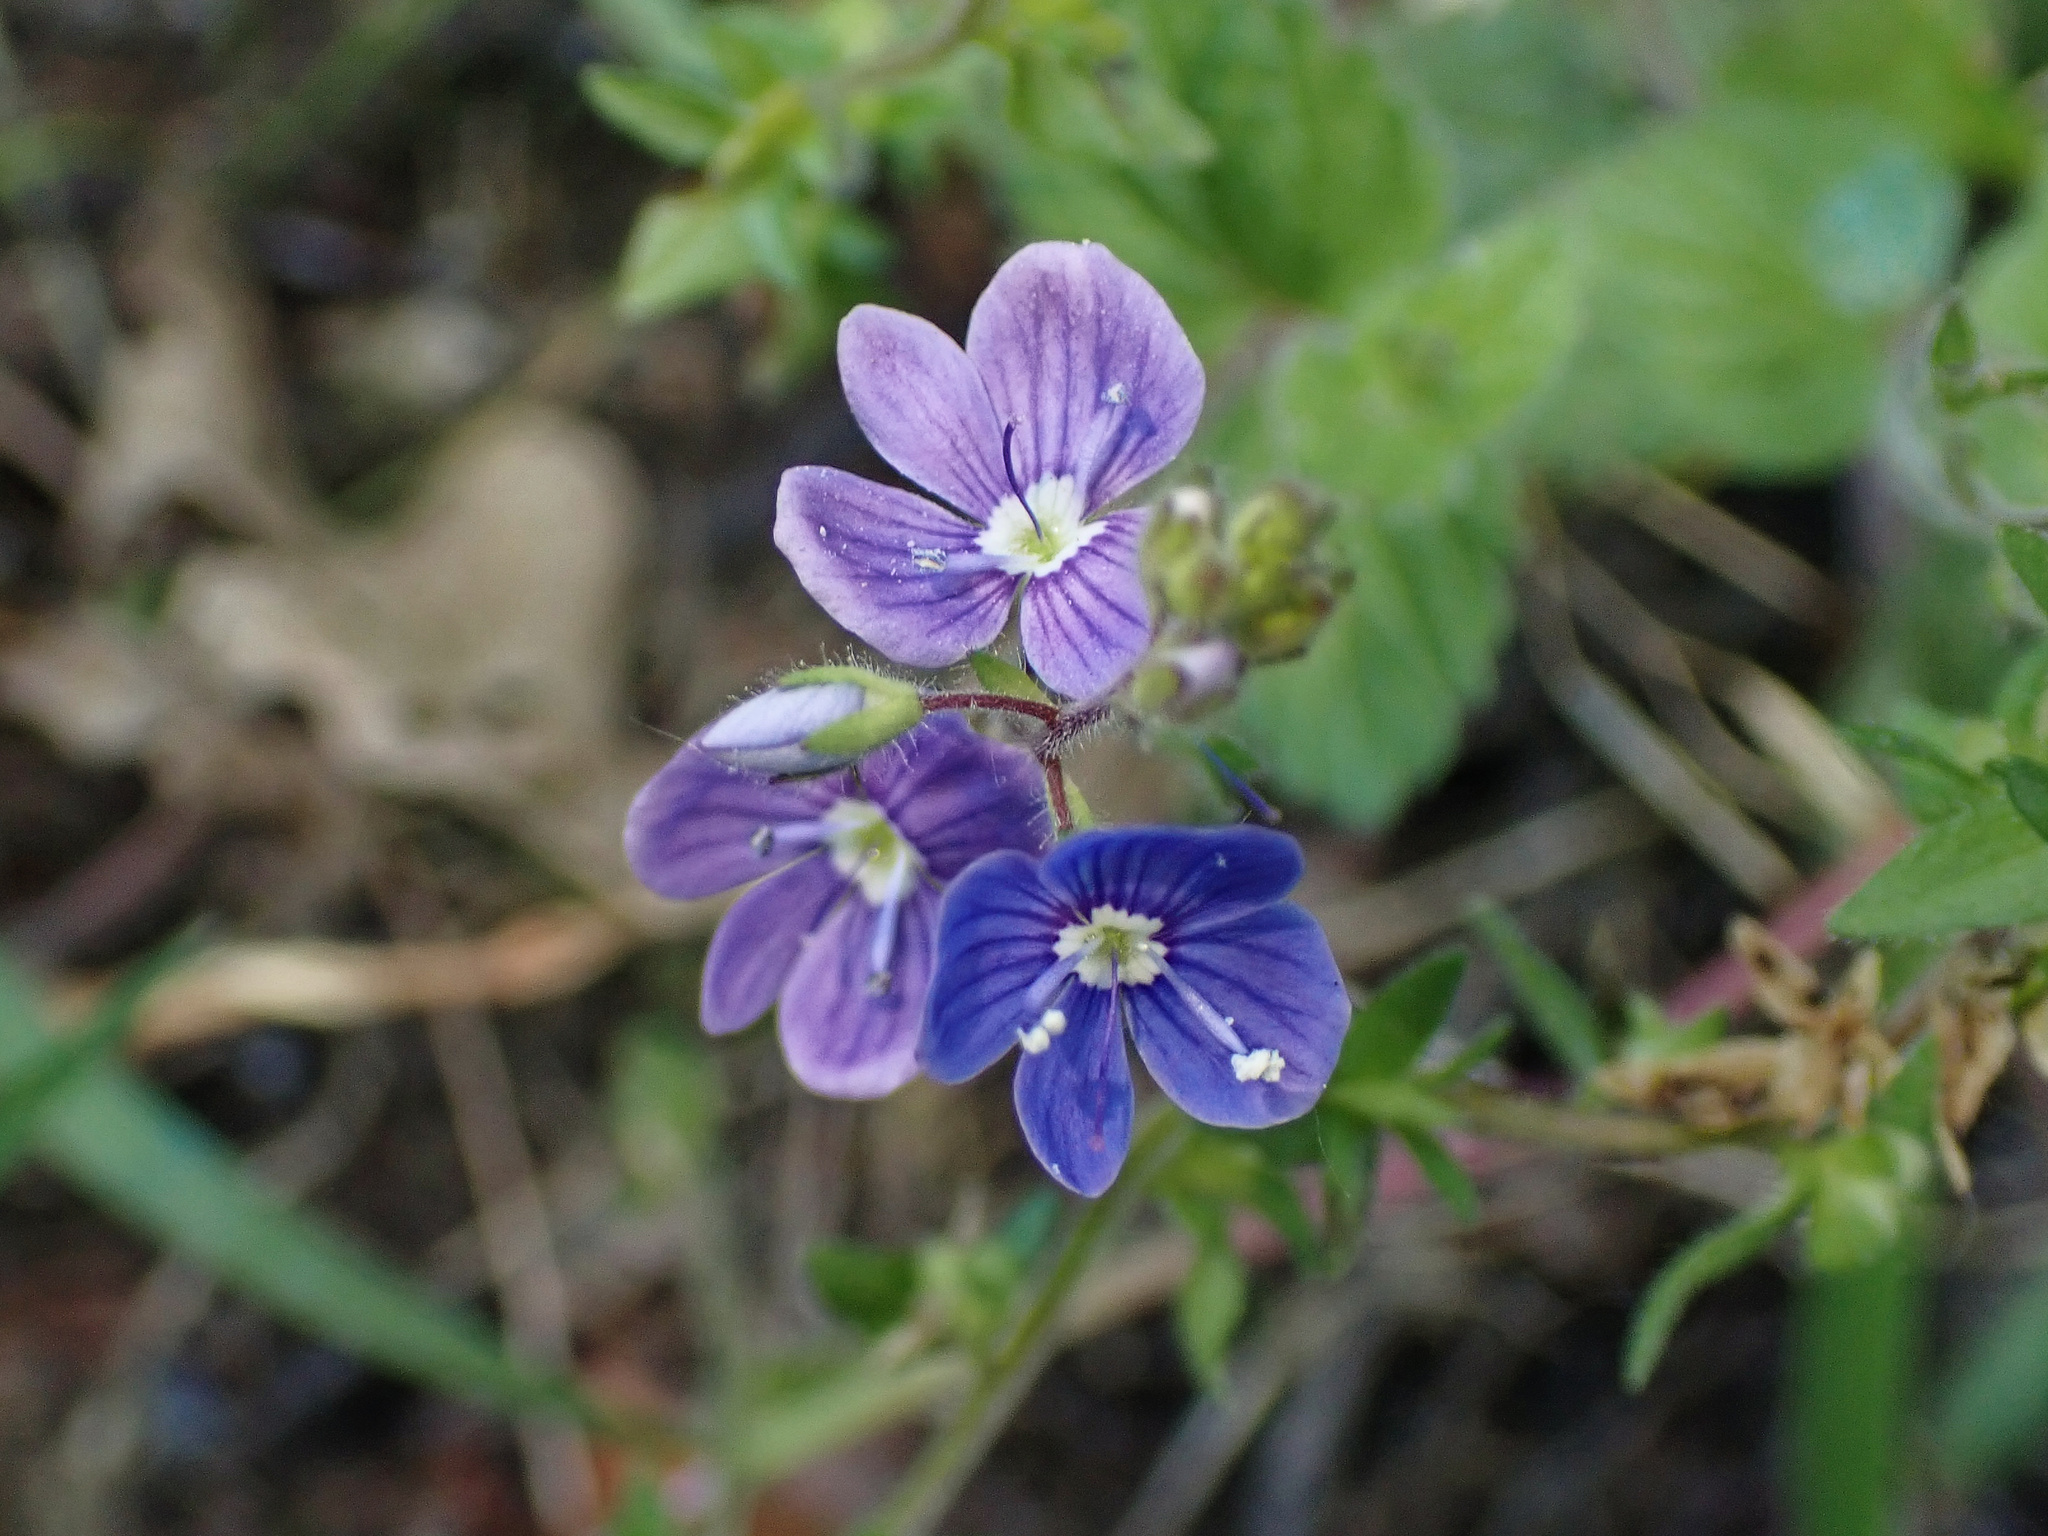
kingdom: Plantae
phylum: Tracheophyta
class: Magnoliopsida
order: Lamiales
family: Plantaginaceae
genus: Veronica
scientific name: Veronica chamaedrys
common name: Germander speedwell
